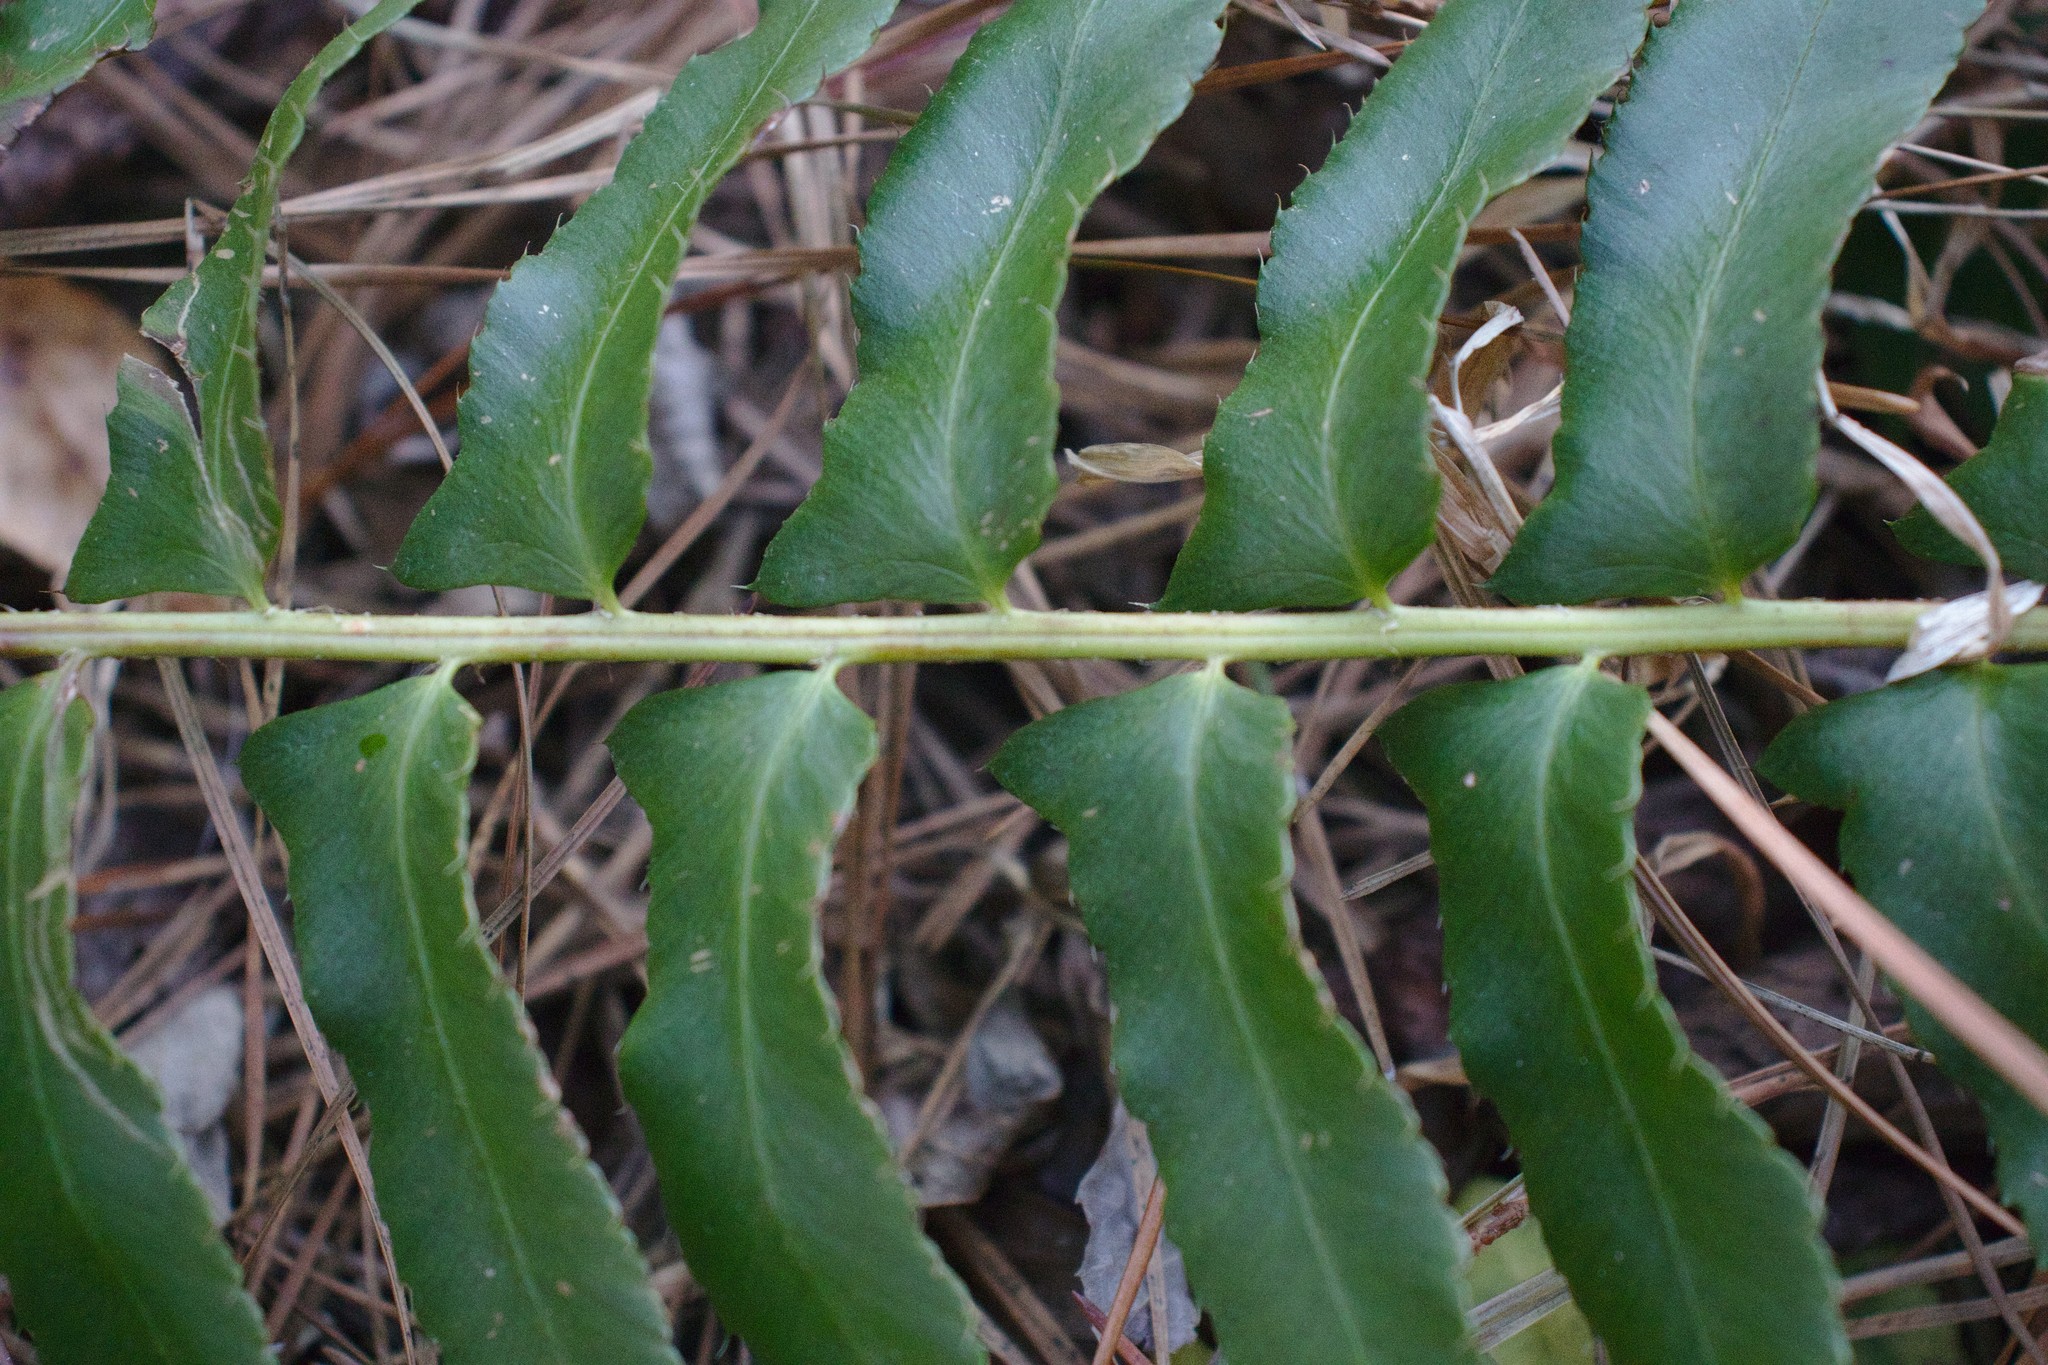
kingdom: Plantae
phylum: Tracheophyta
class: Polypodiopsida
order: Polypodiales
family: Dryopteridaceae
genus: Polystichum
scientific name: Polystichum acrostichoides
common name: Christmas fern
